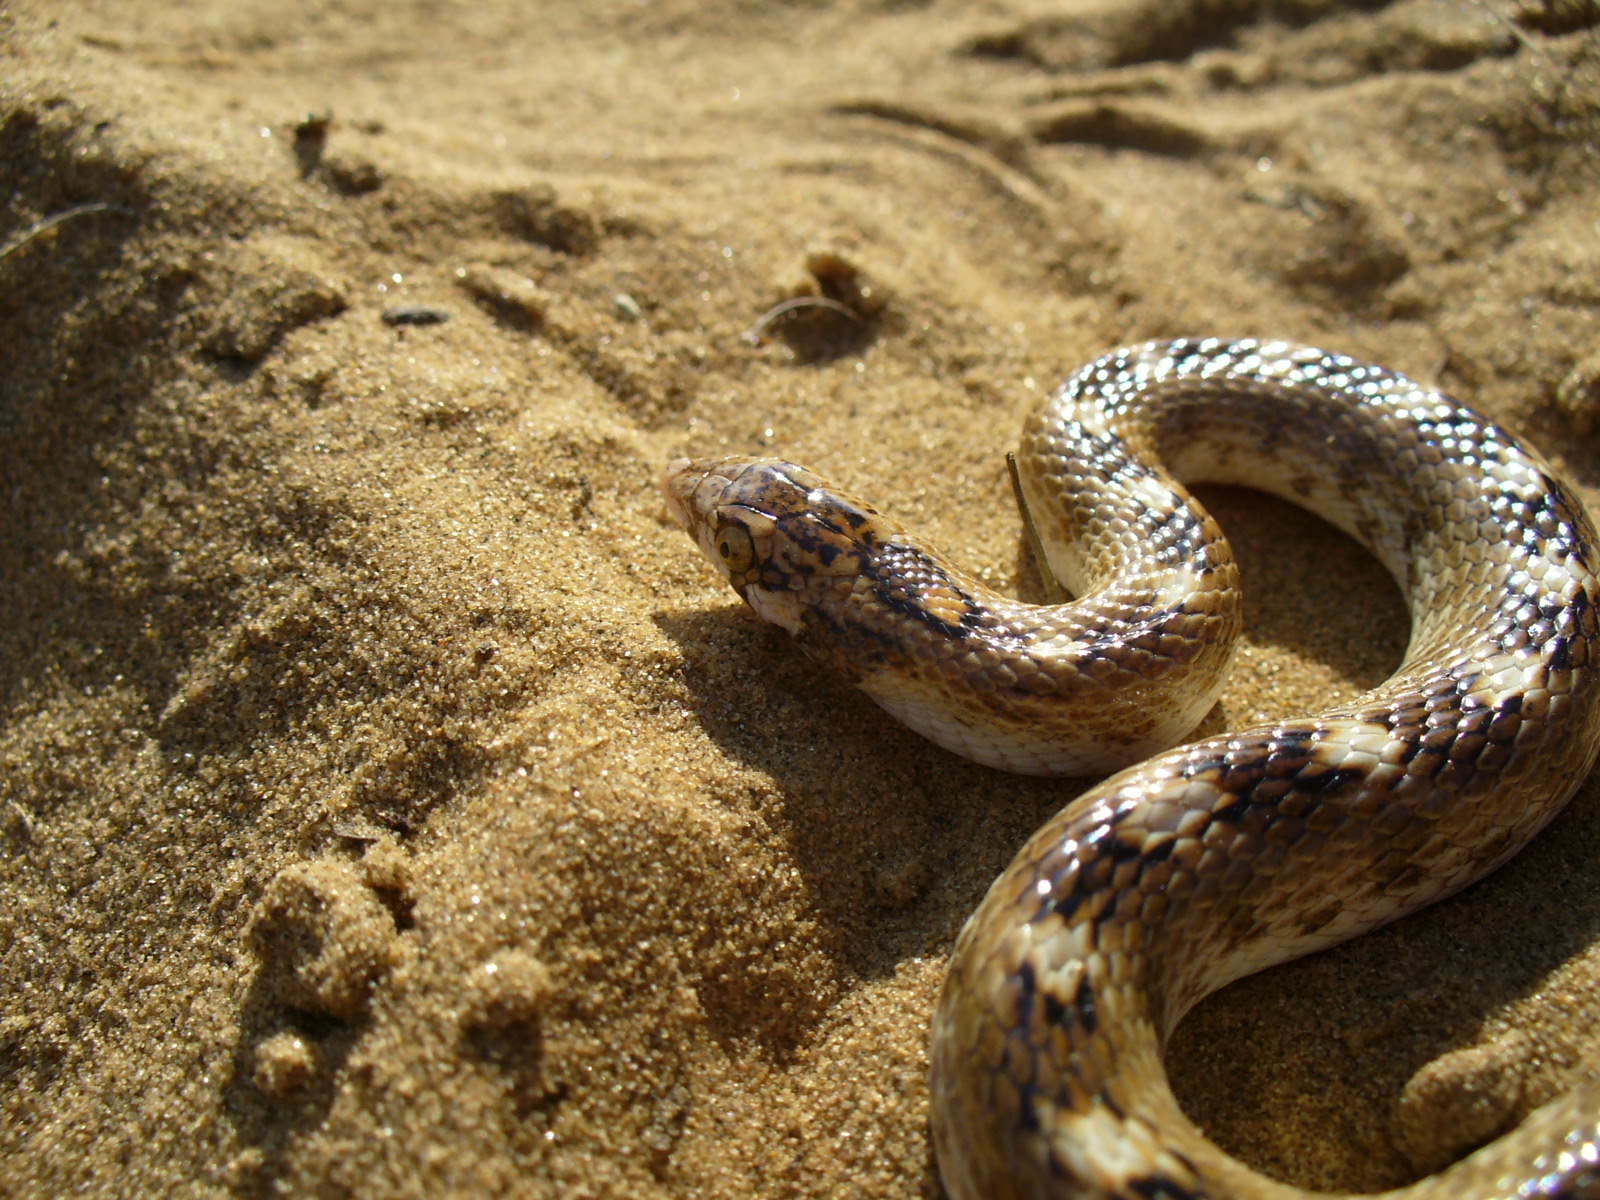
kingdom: Animalia
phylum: Chordata
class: Squamata
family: Colubridae
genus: Lytorhynchus
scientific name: Lytorhynchus paradoxus
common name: Sind longnose sand snake
